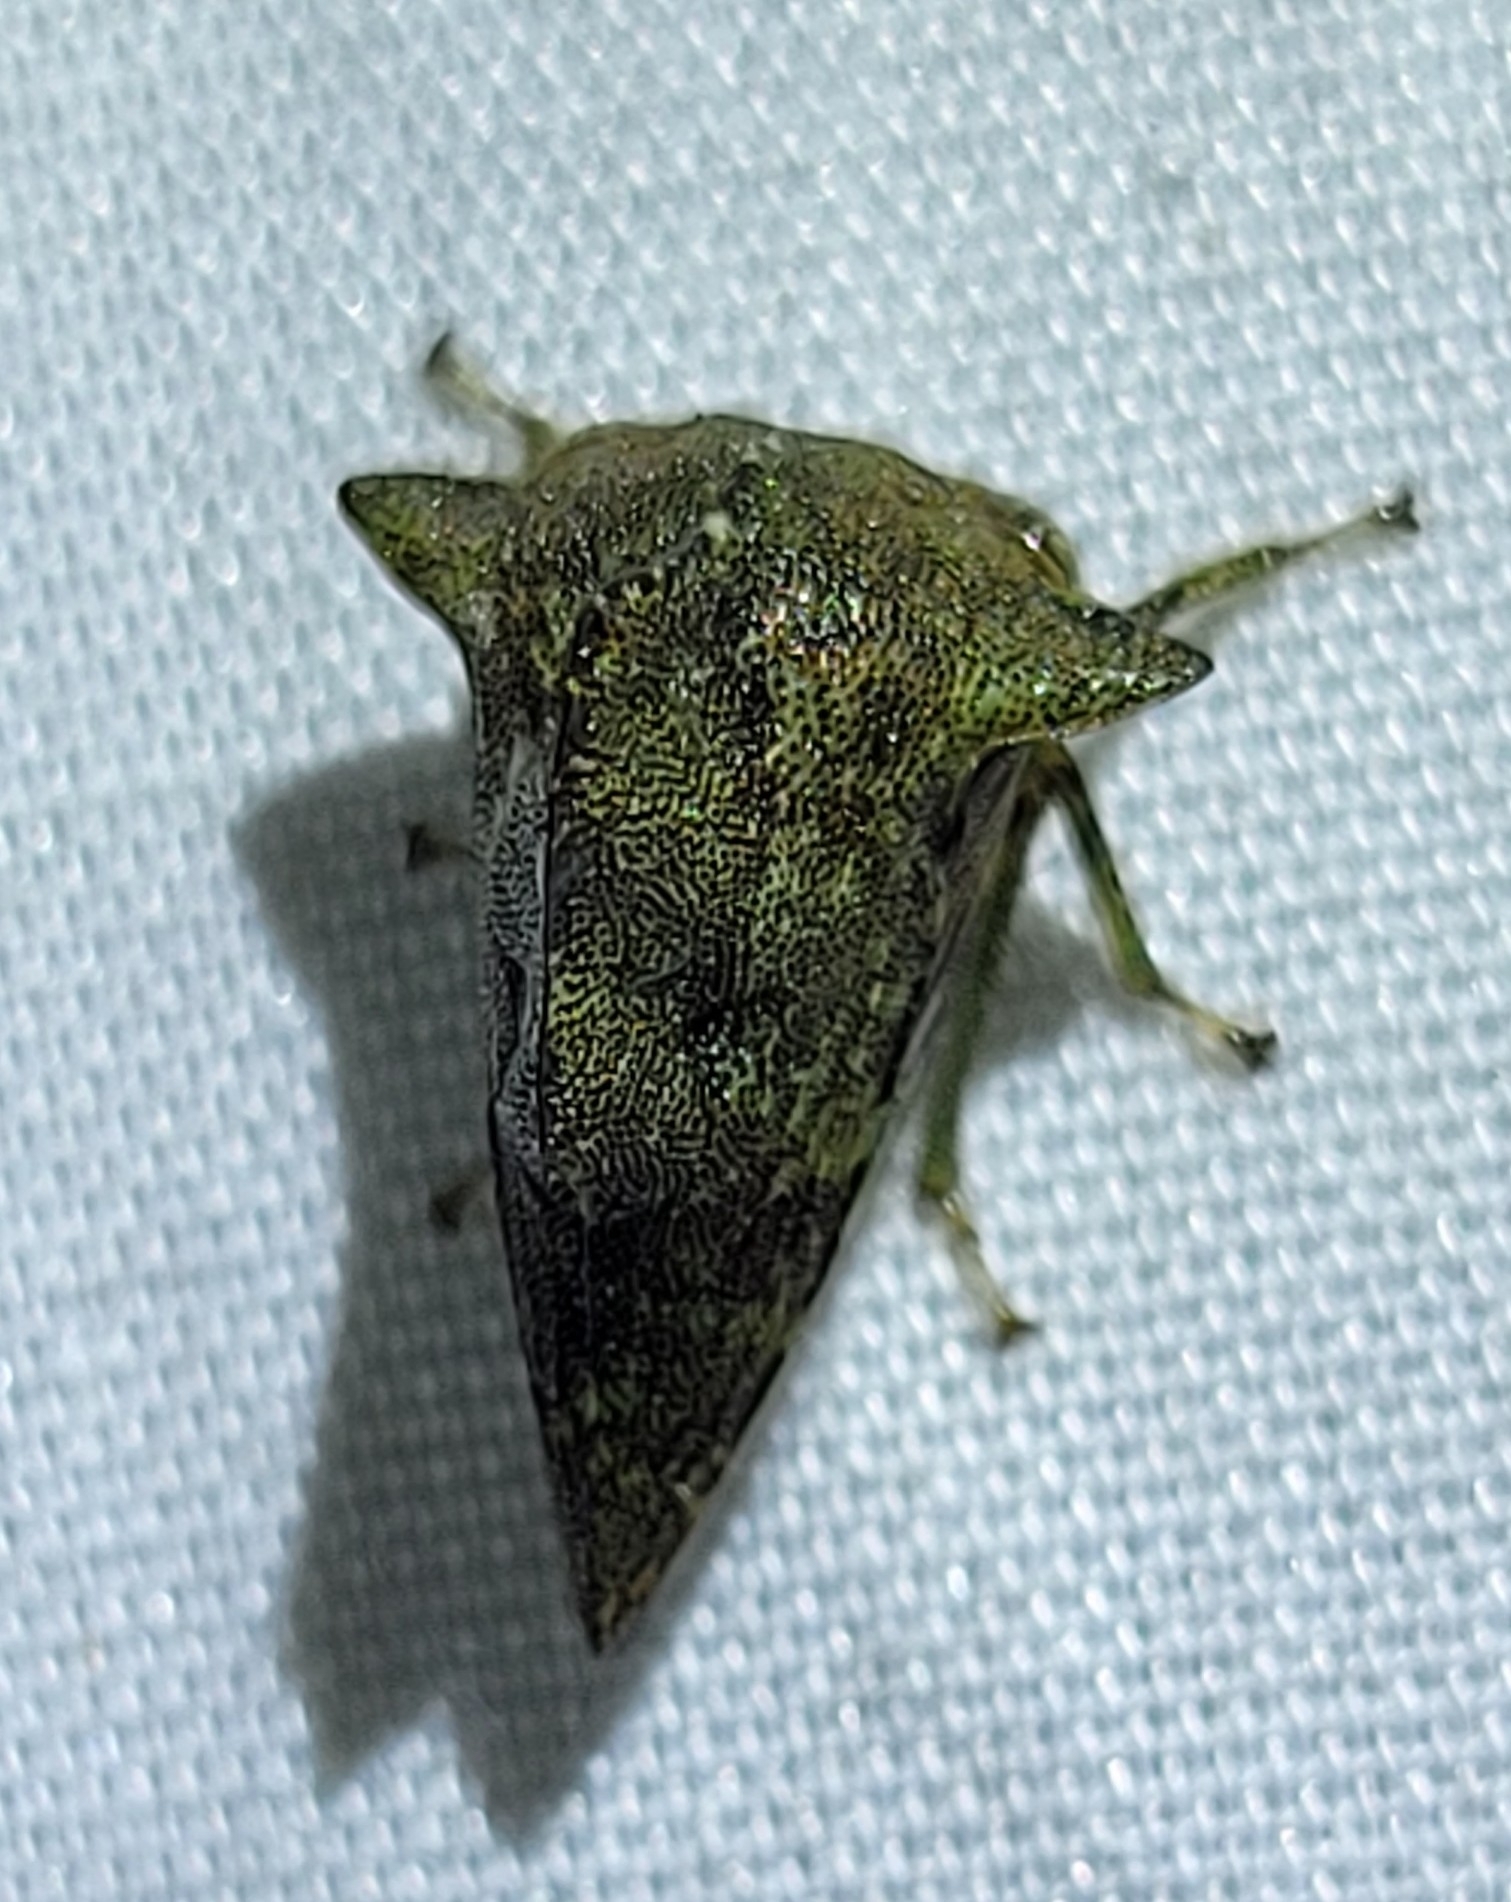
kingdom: Animalia
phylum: Arthropoda
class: Insecta
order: Hemiptera
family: Membracidae
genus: Heliria
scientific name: Heliria cornutula
